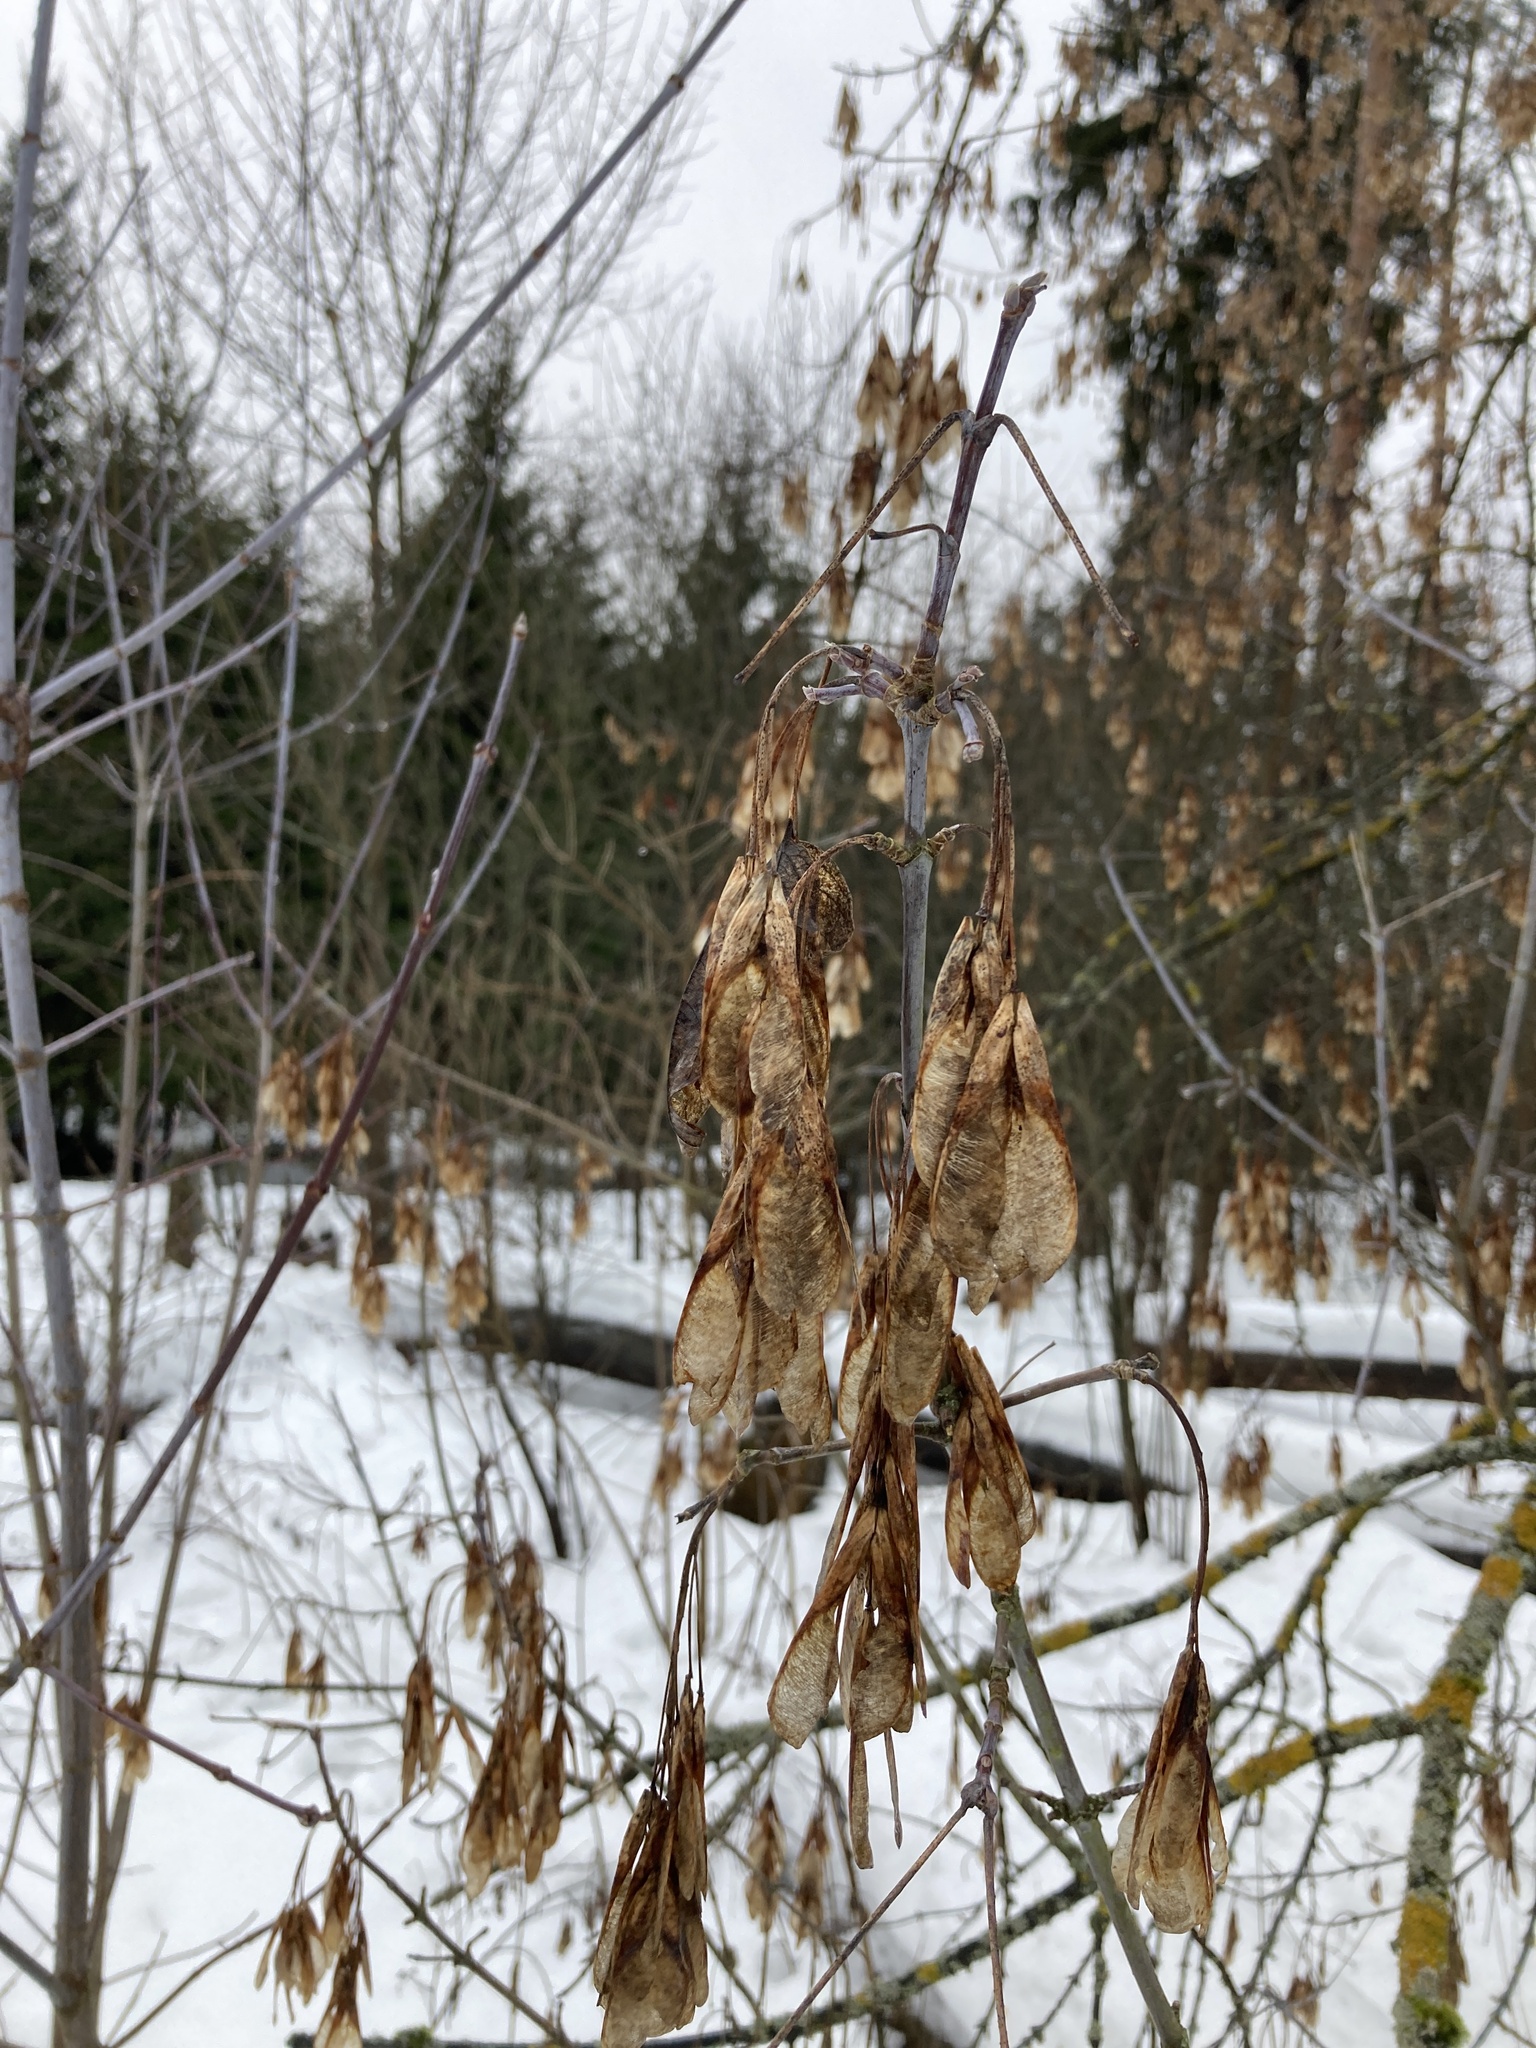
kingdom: Plantae
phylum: Tracheophyta
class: Magnoliopsida
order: Sapindales
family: Sapindaceae
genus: Acer
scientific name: Acer negundo
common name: Ashleaf maple
